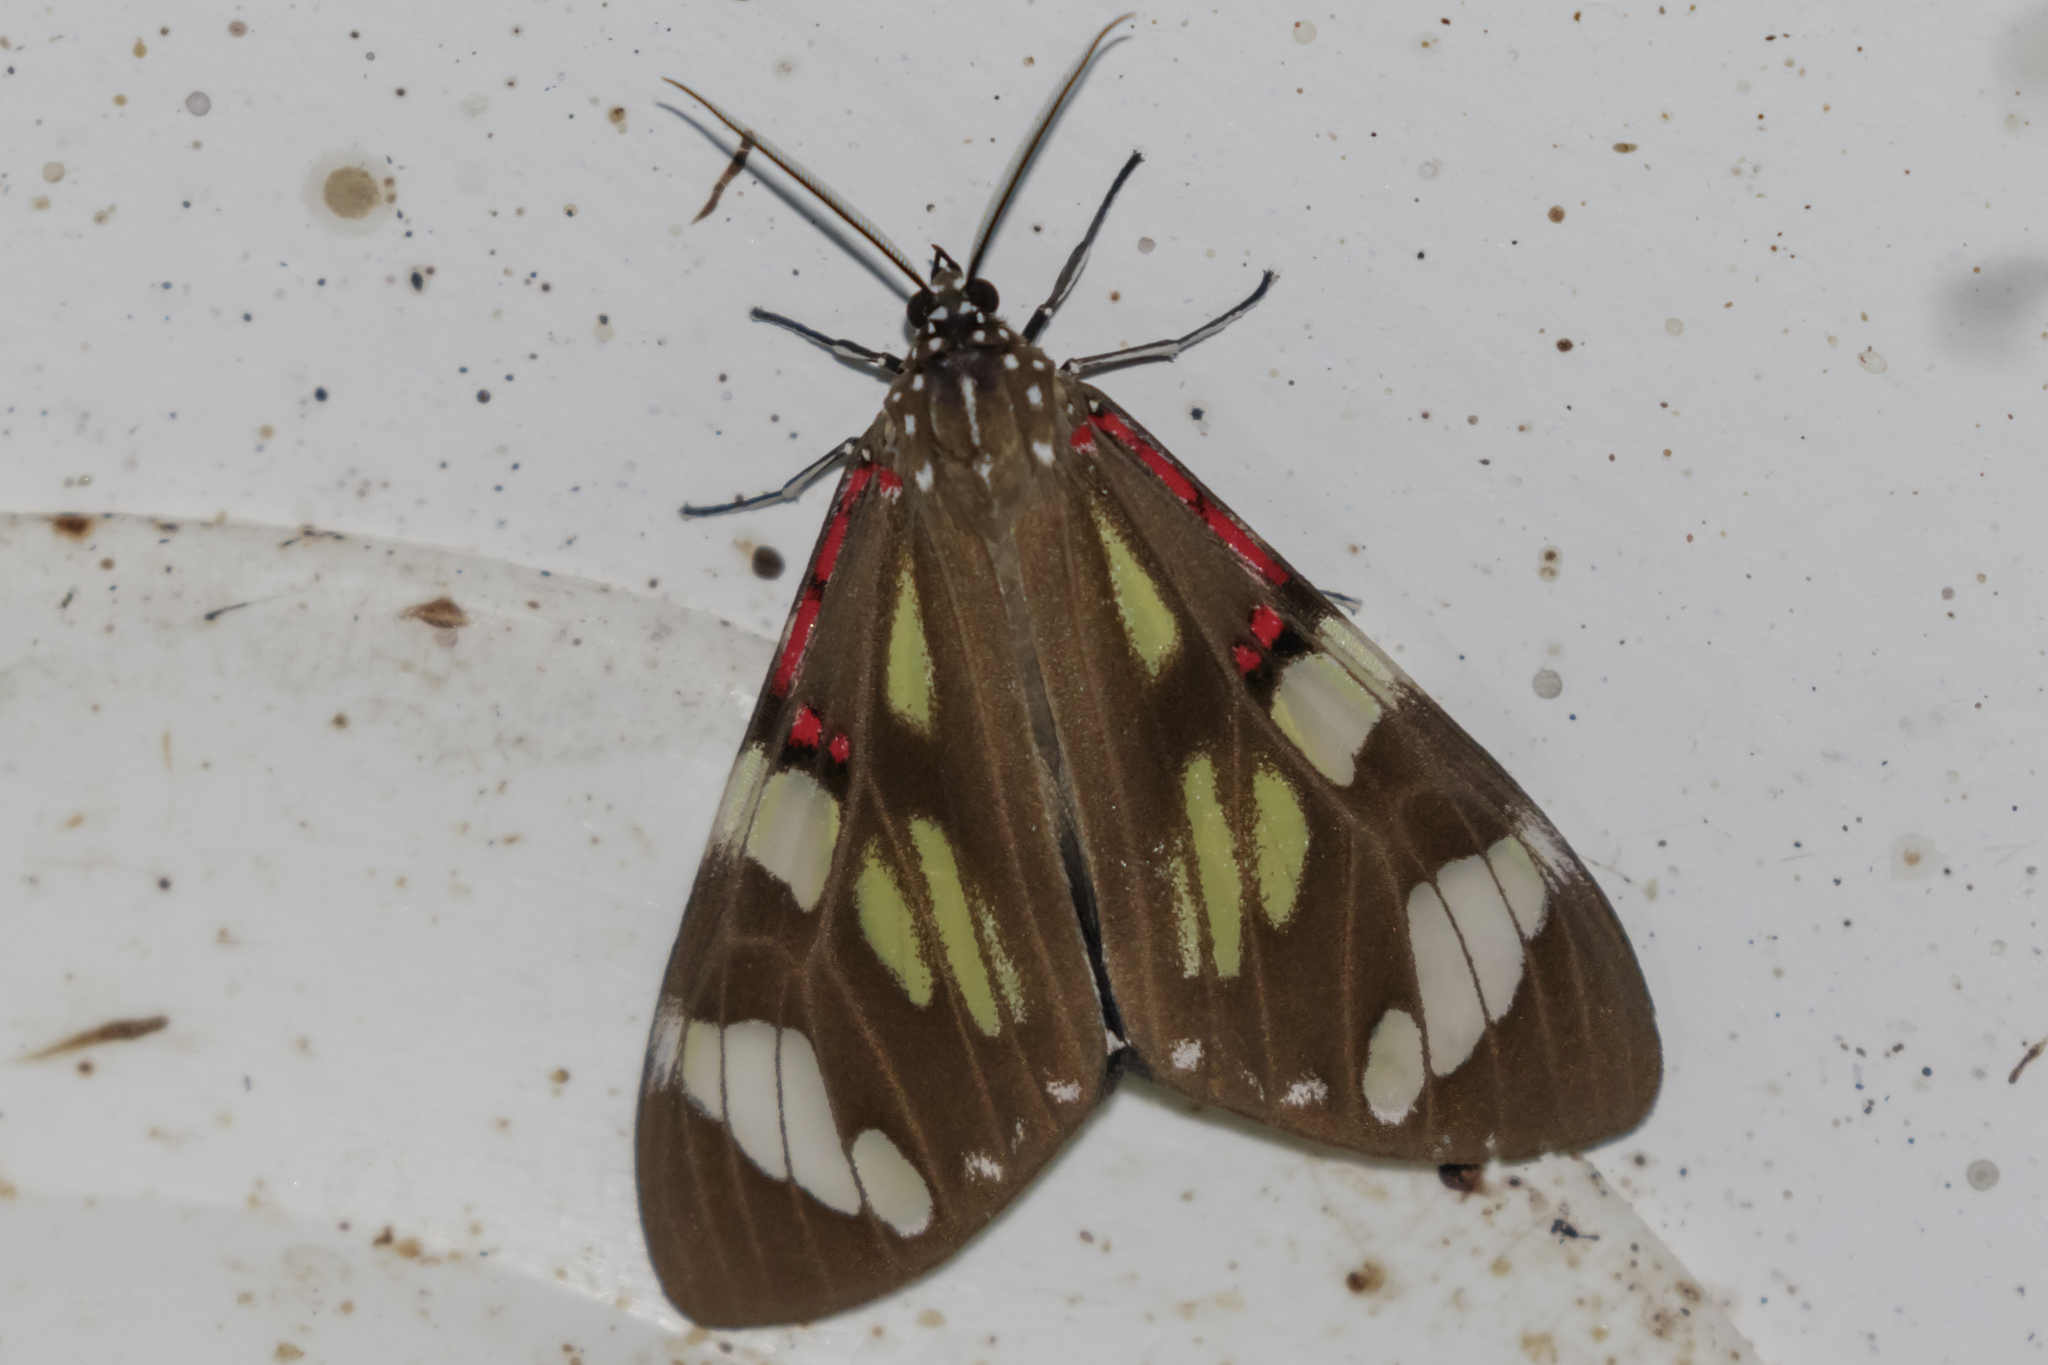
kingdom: Animalia
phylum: Arthropoda
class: Insecta
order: Lepidoptera
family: Erebidae
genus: Phaloe
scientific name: Phaloe cruenta
